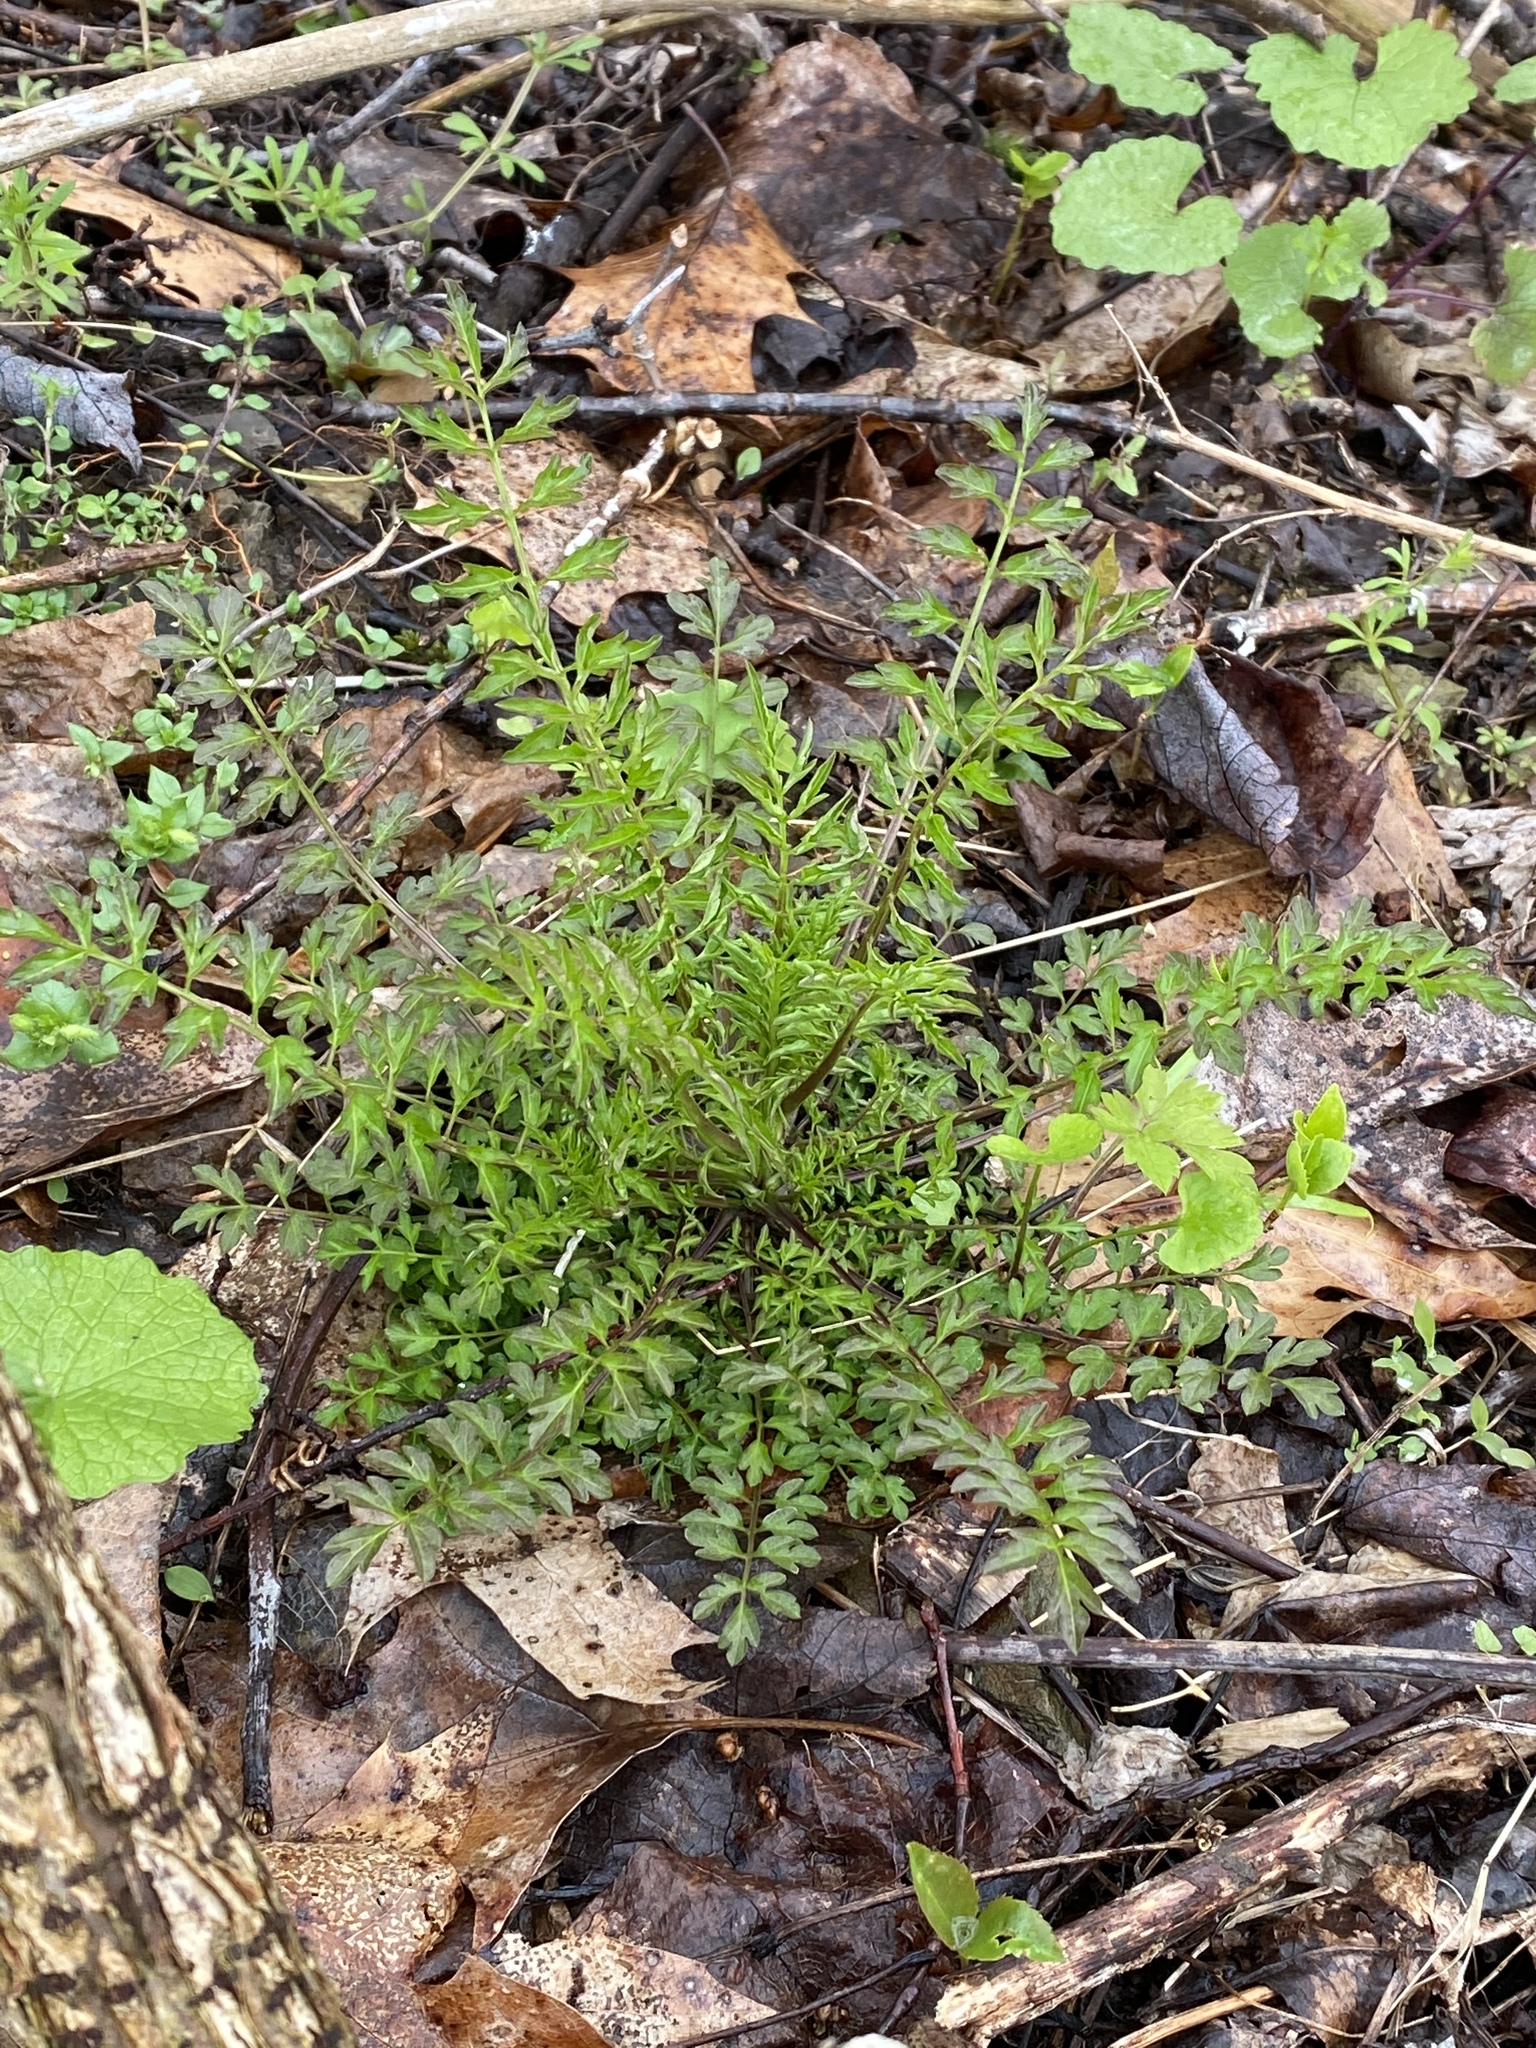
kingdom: Plantae
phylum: Tracheophyta
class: Magnoliopsida
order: Brassicales
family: Brassicaceae
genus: Cardamine
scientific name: Cardamine impatiens
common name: Narrow-leaved bitter-cress
